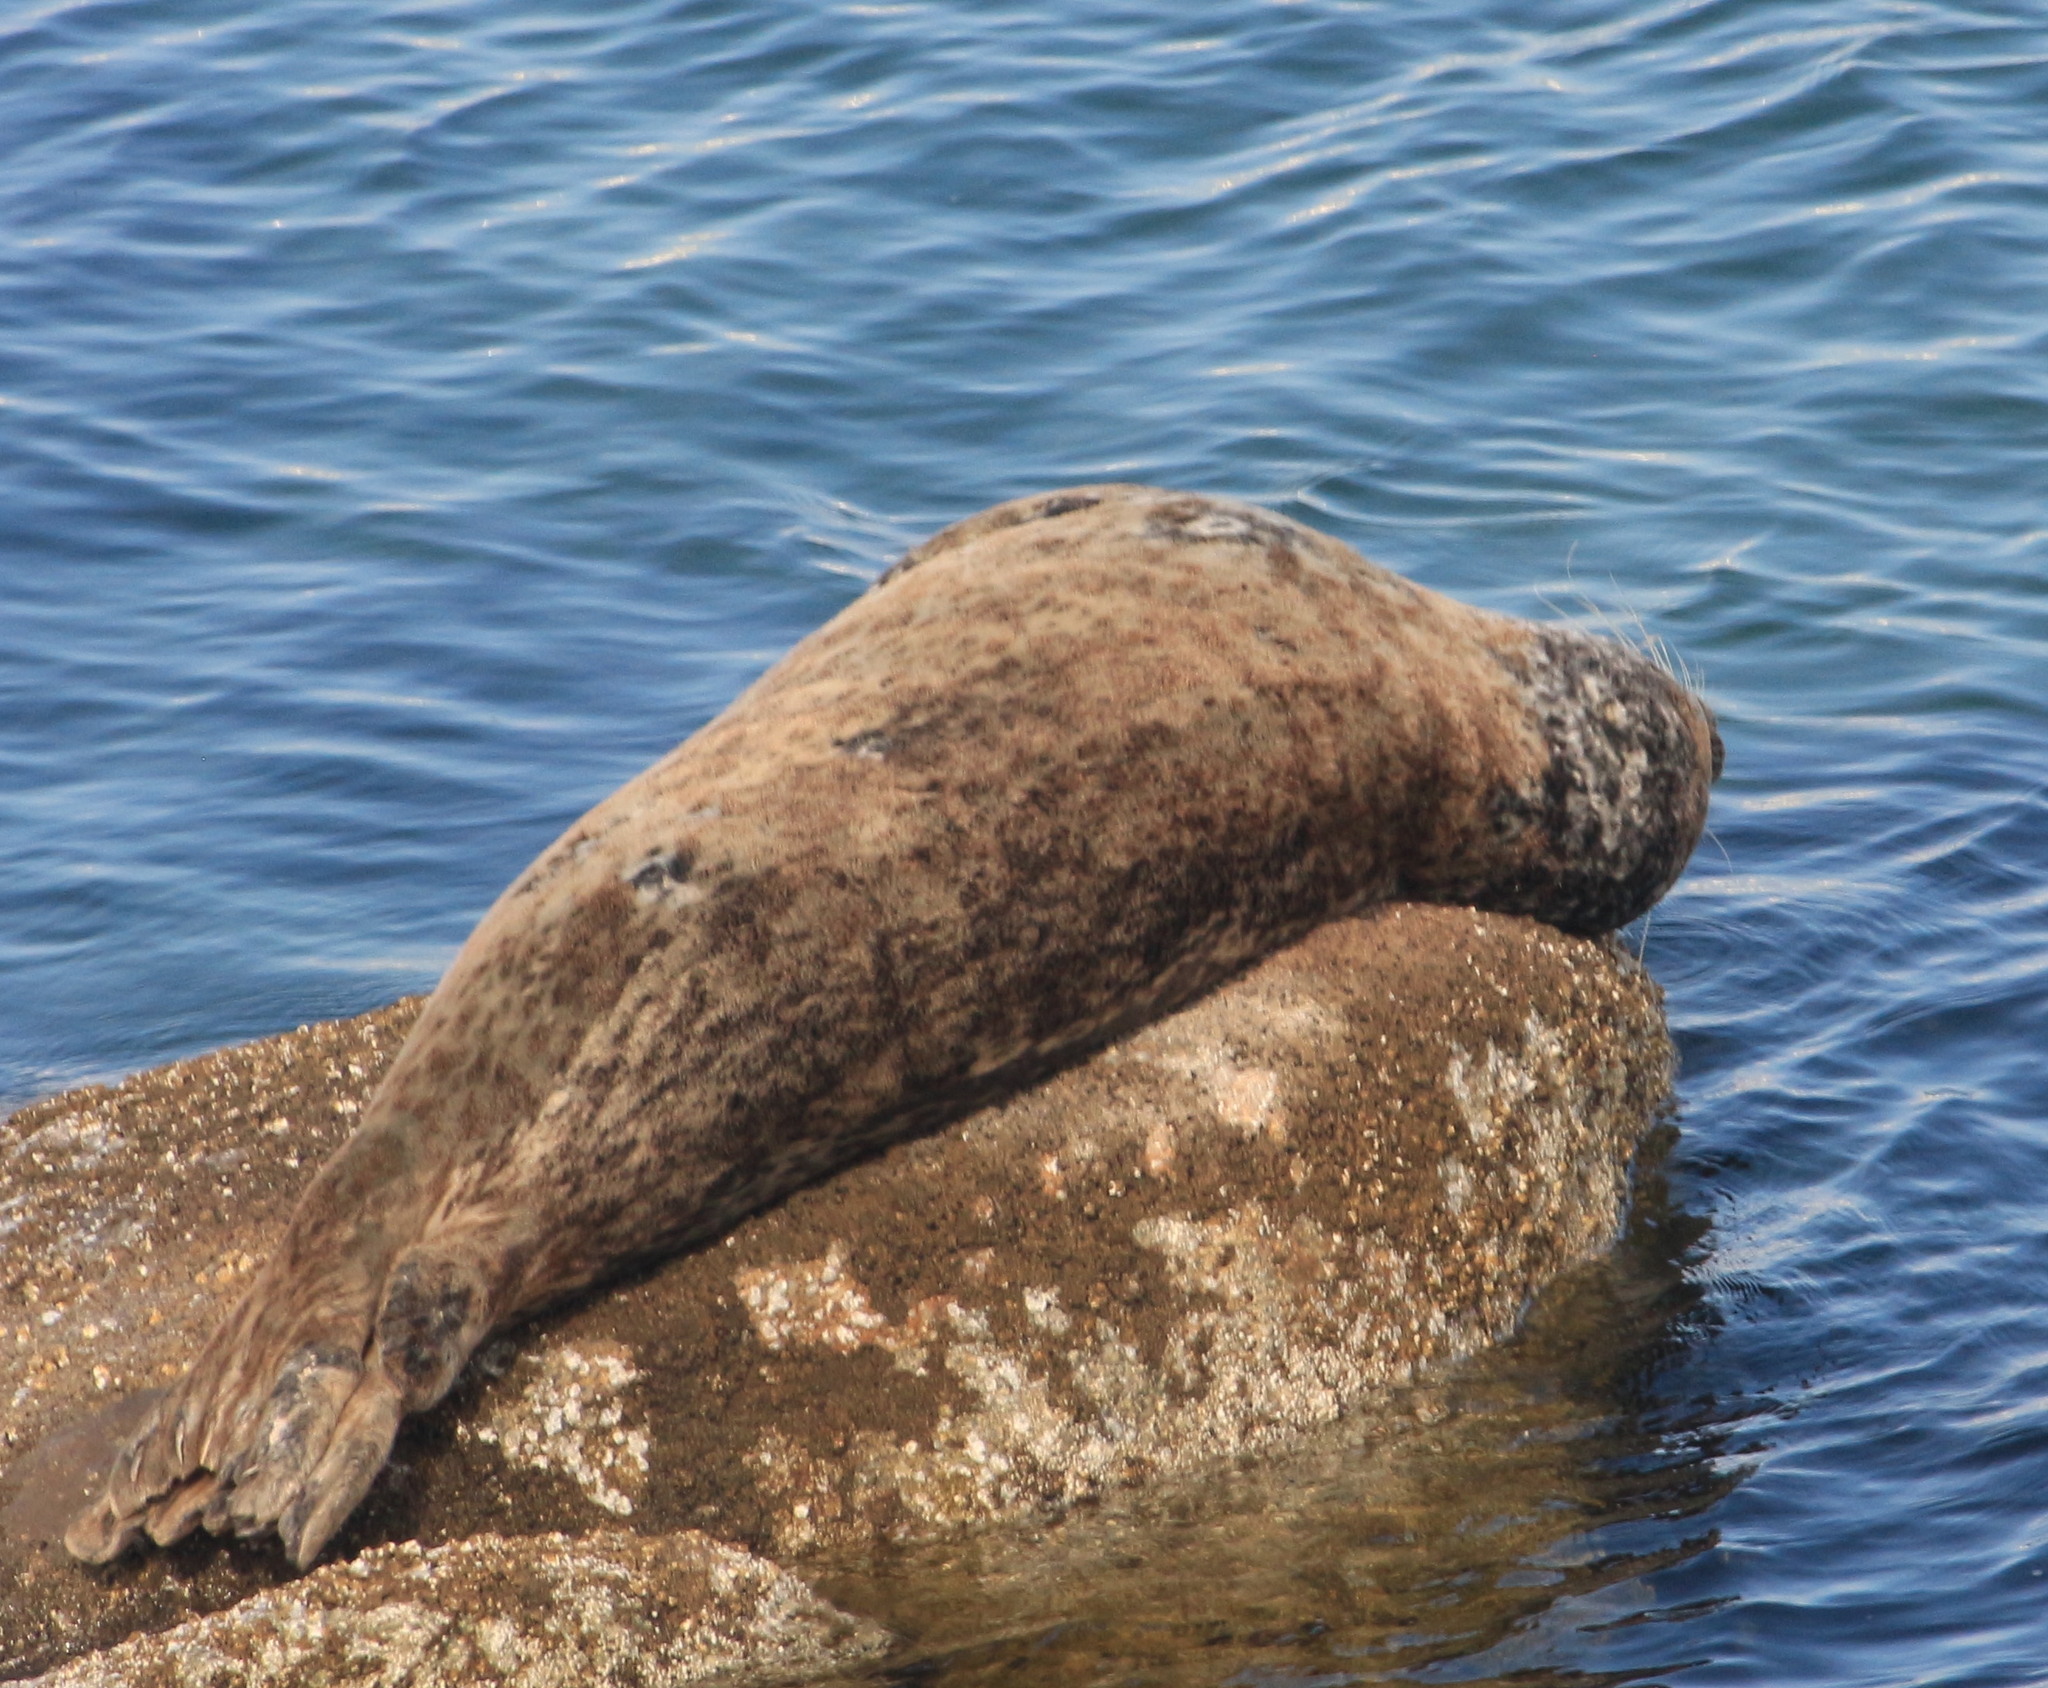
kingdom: Animalia
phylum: Chordata
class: Mammalia
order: Carnivora
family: Phocidae
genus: Phoca
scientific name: Phoca vitulina
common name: Harbor seal
